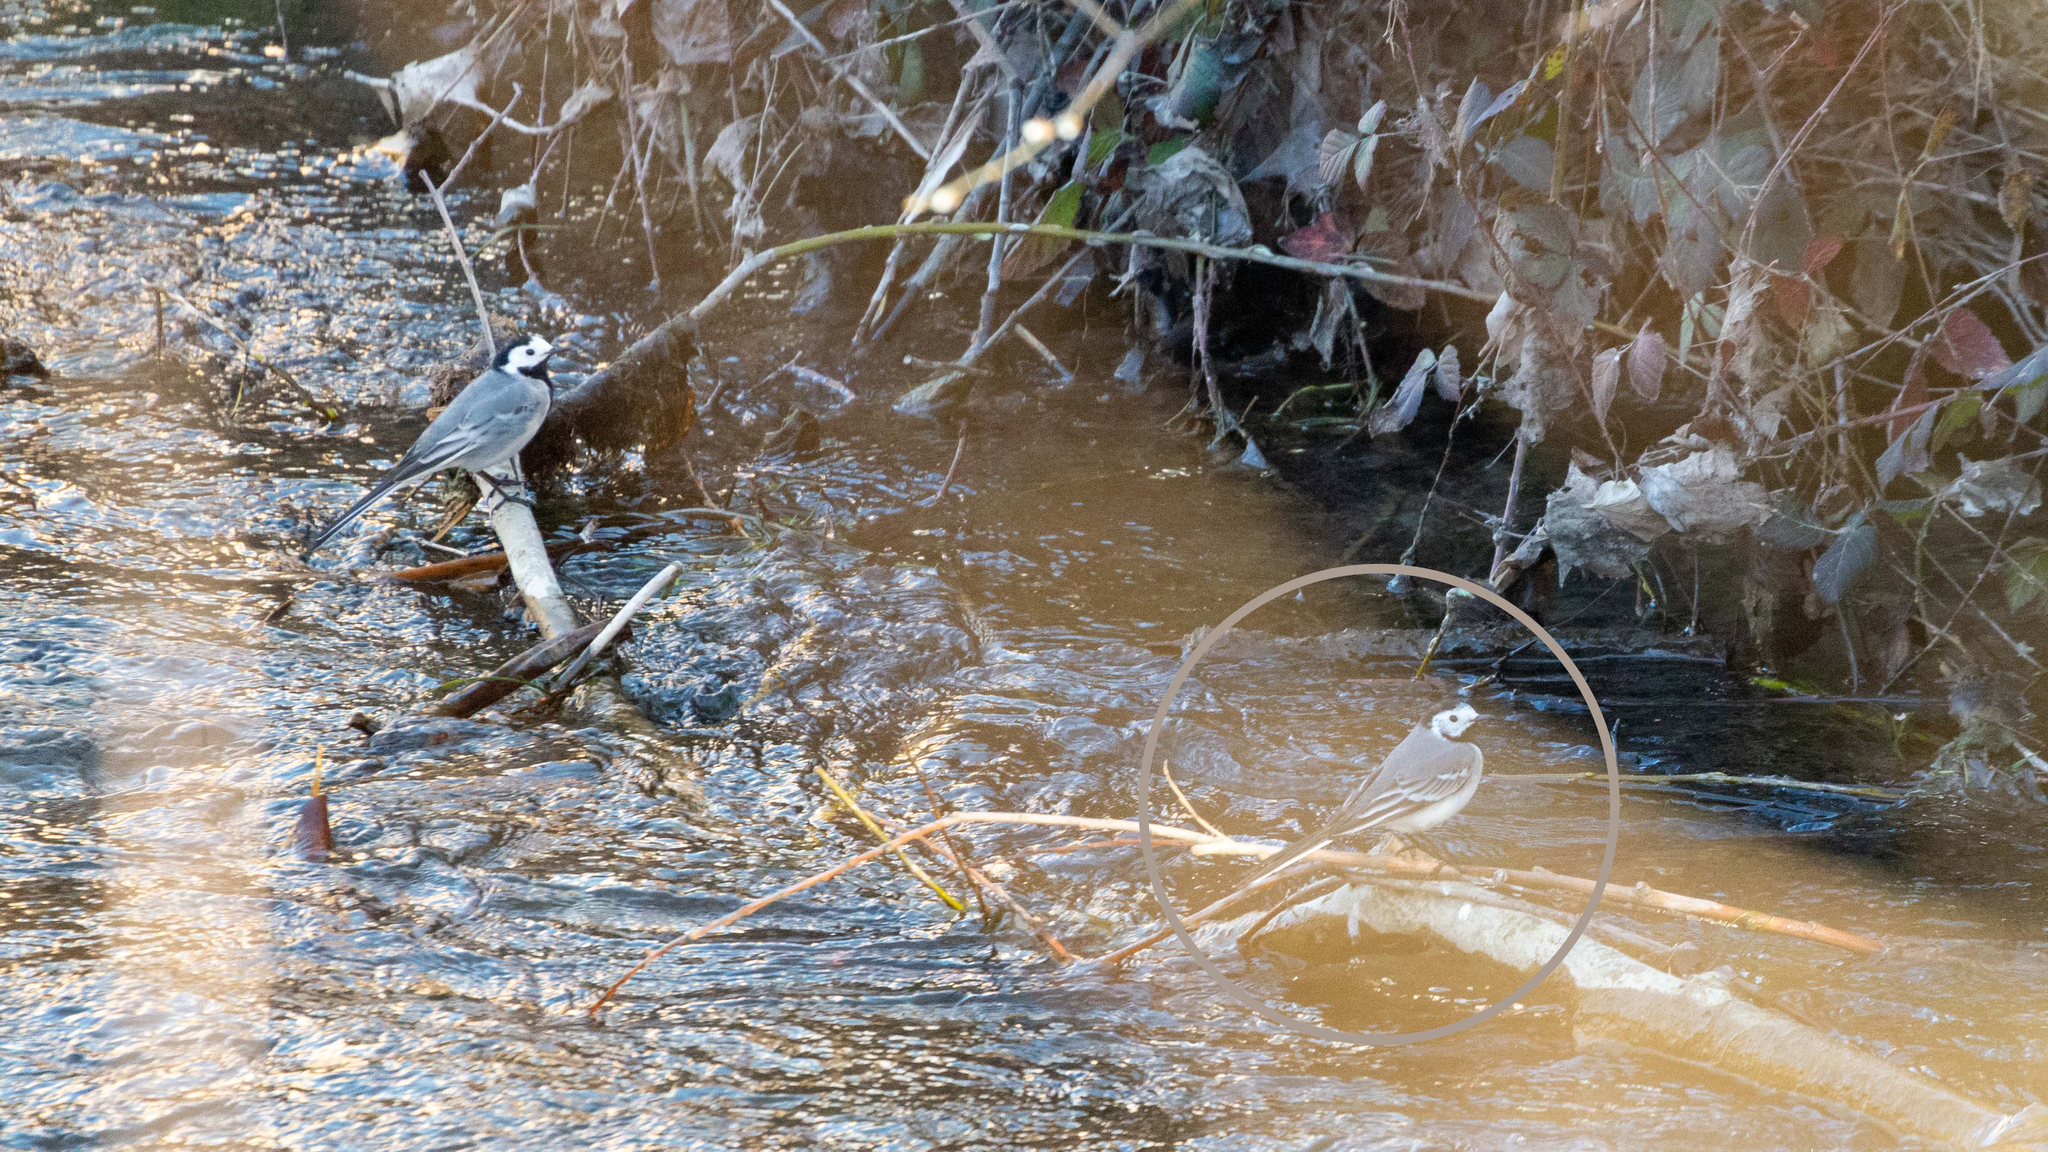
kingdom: Animalia
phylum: Chordata
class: Aves
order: Passeriformes
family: Motacillidae
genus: Motacilla
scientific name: Motacilla alba
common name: White wagtail
